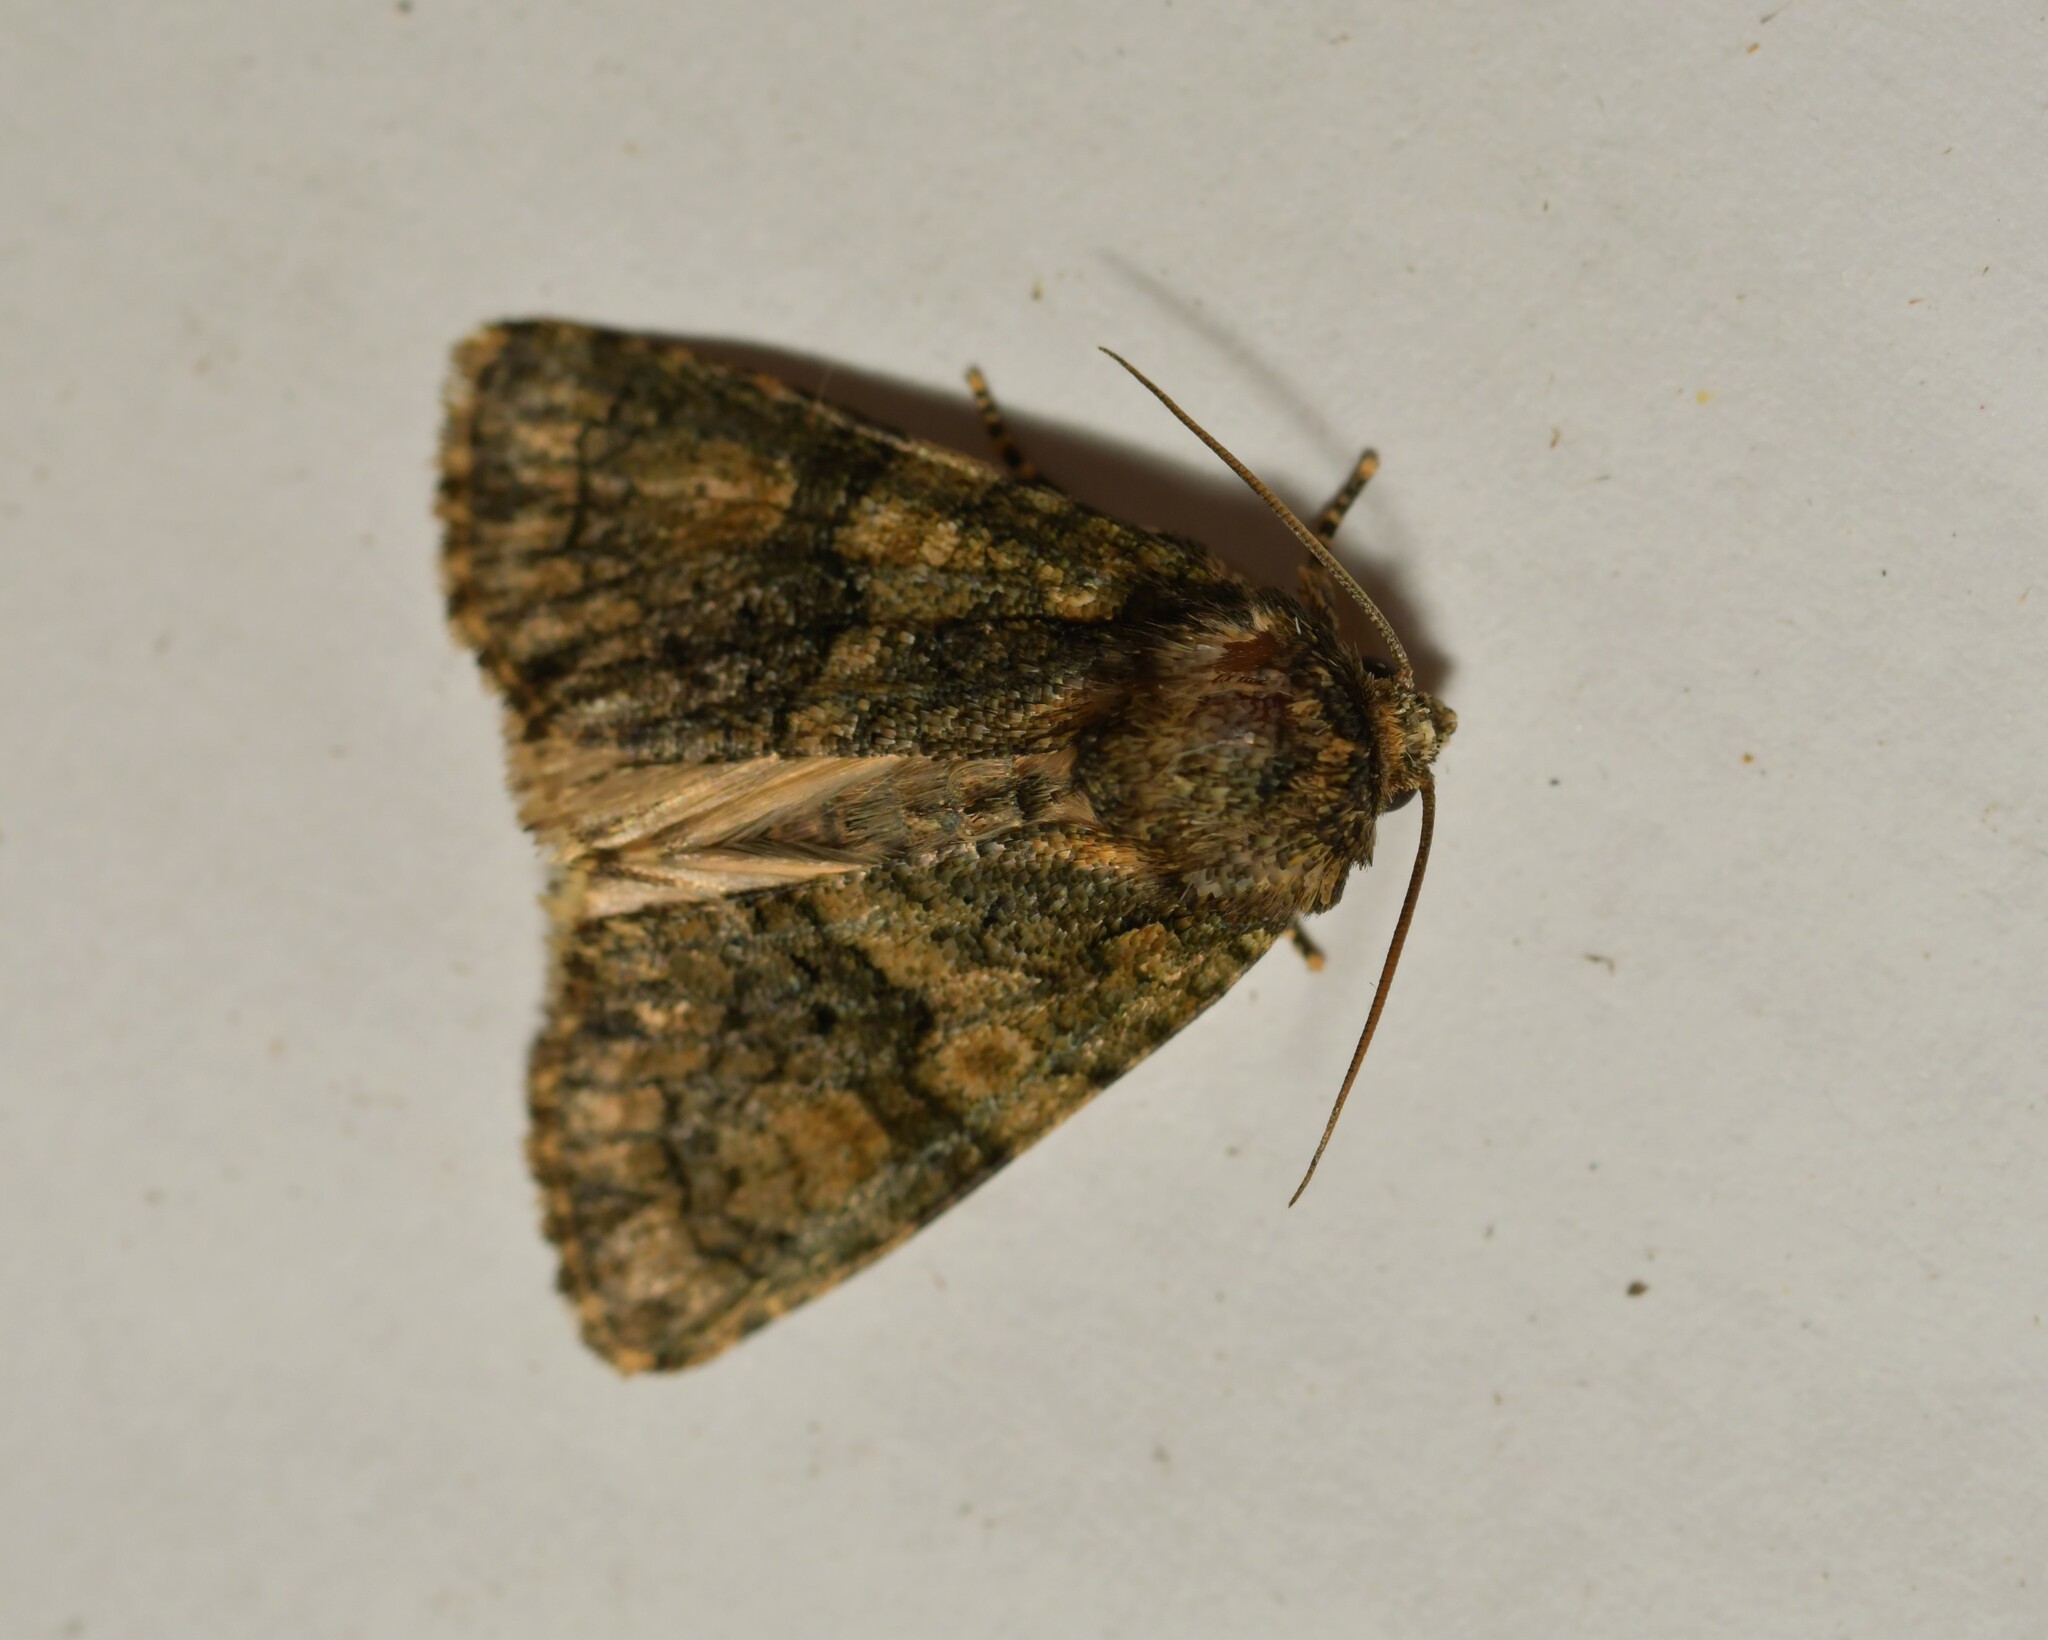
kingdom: Animalia
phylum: Arthropoda
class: Insecta
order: Lepidoptera
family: Noctuidae
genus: Craniophora
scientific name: Craniophora ligustri
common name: Coronet
